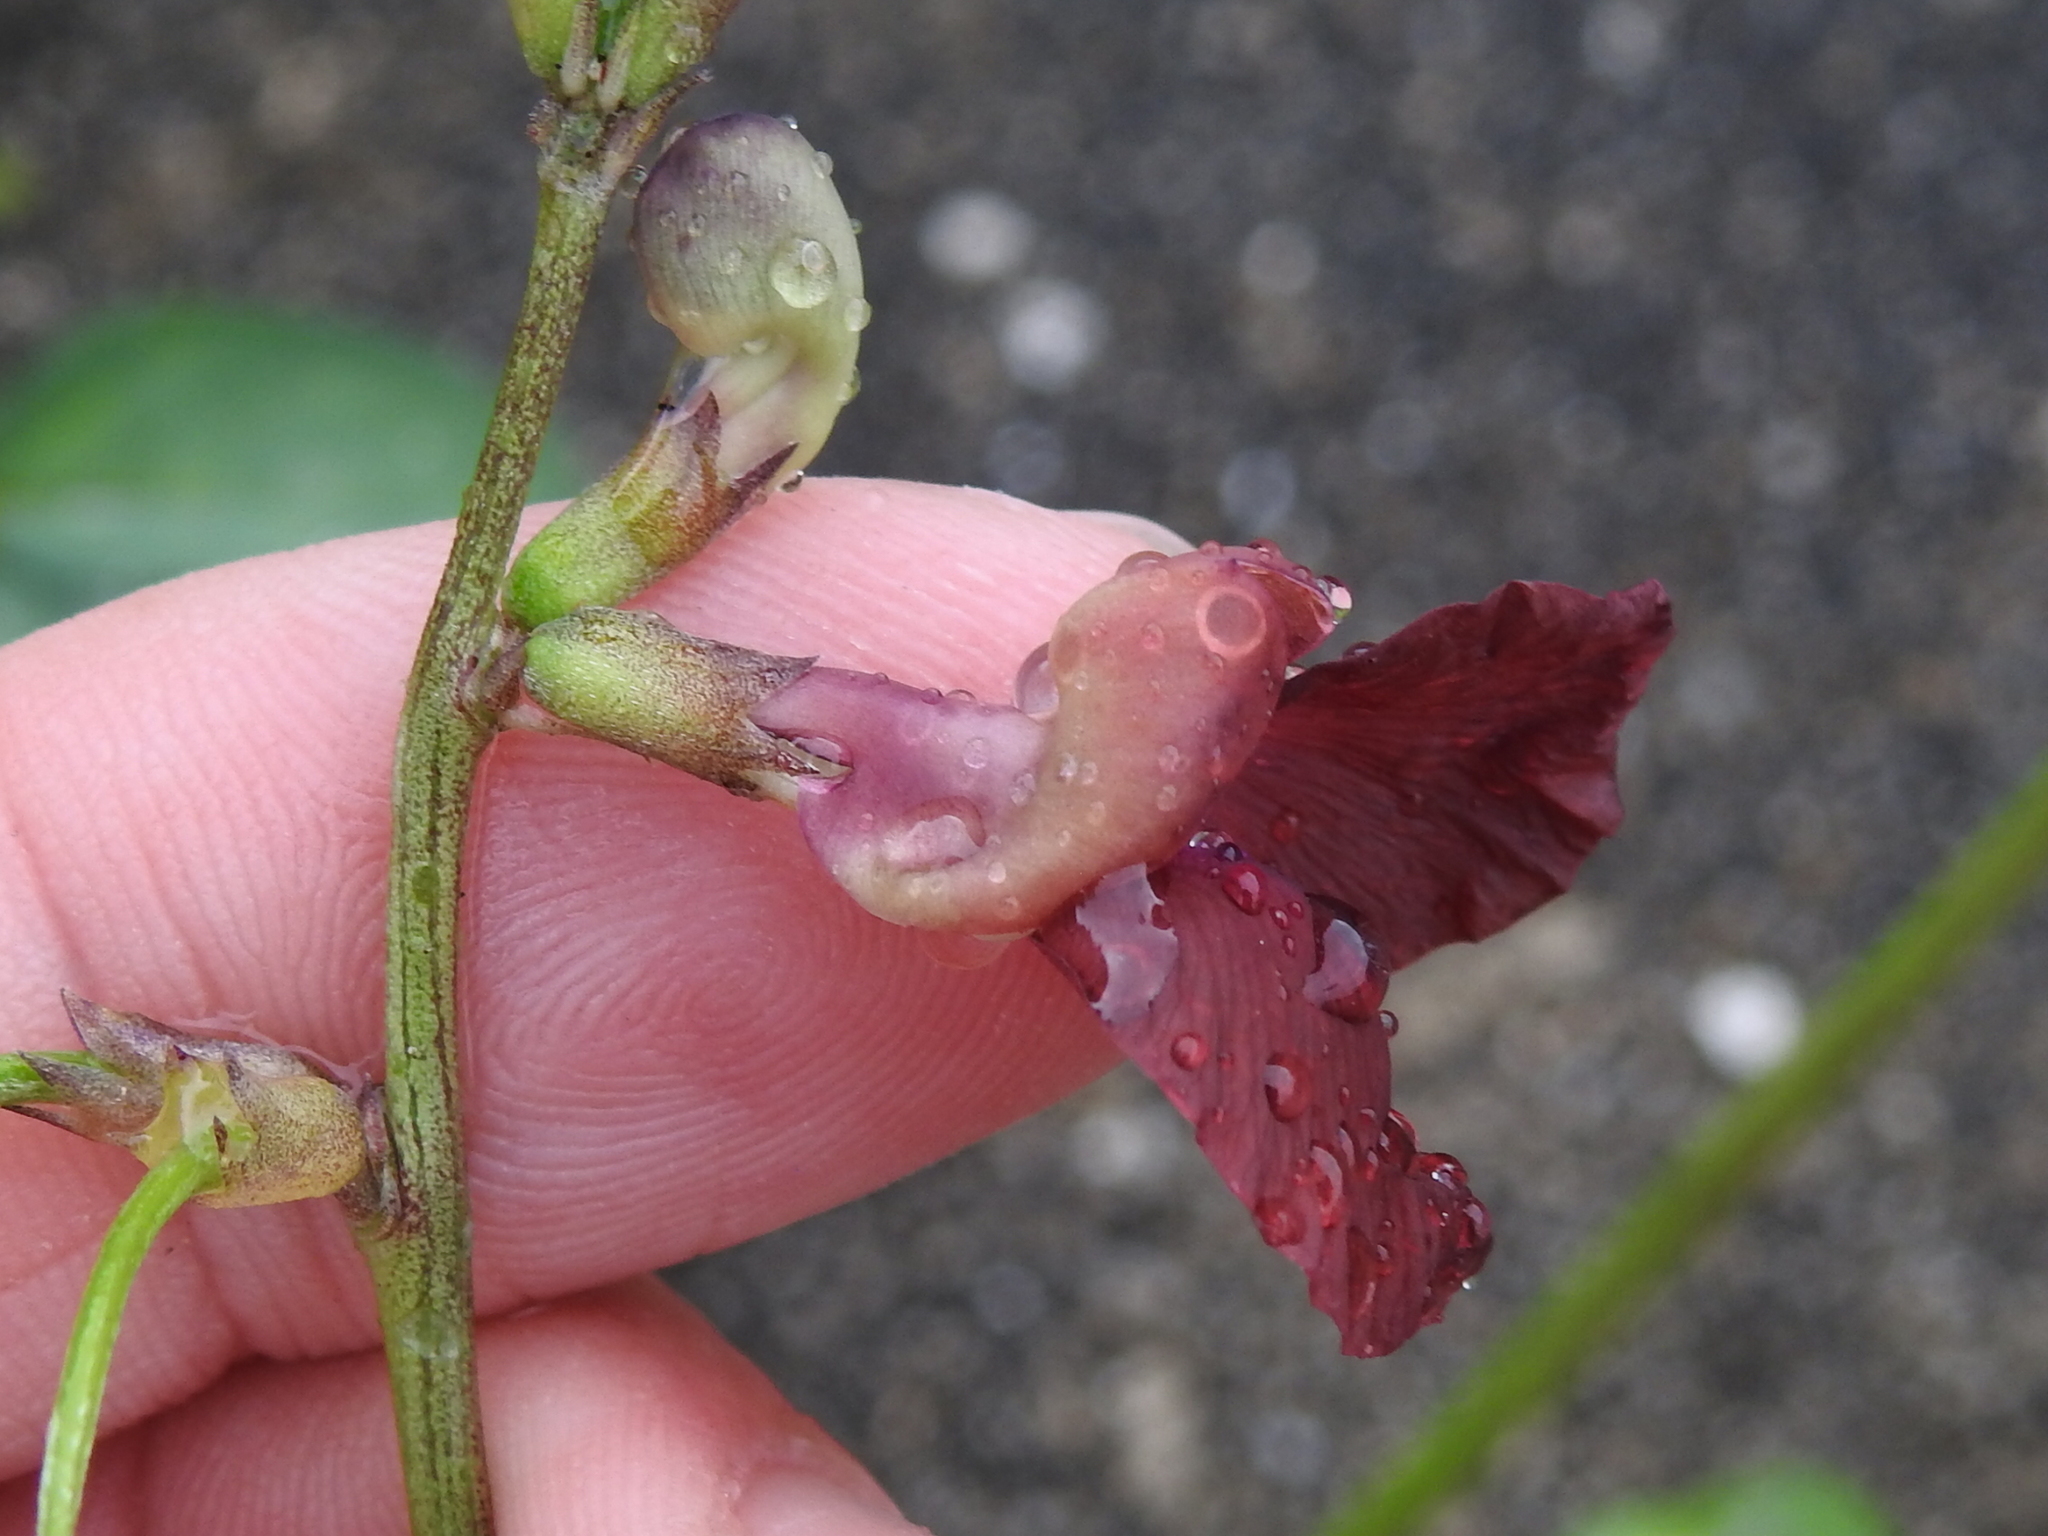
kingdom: Plantae
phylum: Tracheophyta
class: Magnoliopsida
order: Fabales
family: Fabaceae
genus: Macroptilium
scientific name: Macroptilium lathyroides
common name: Wild bushbean
